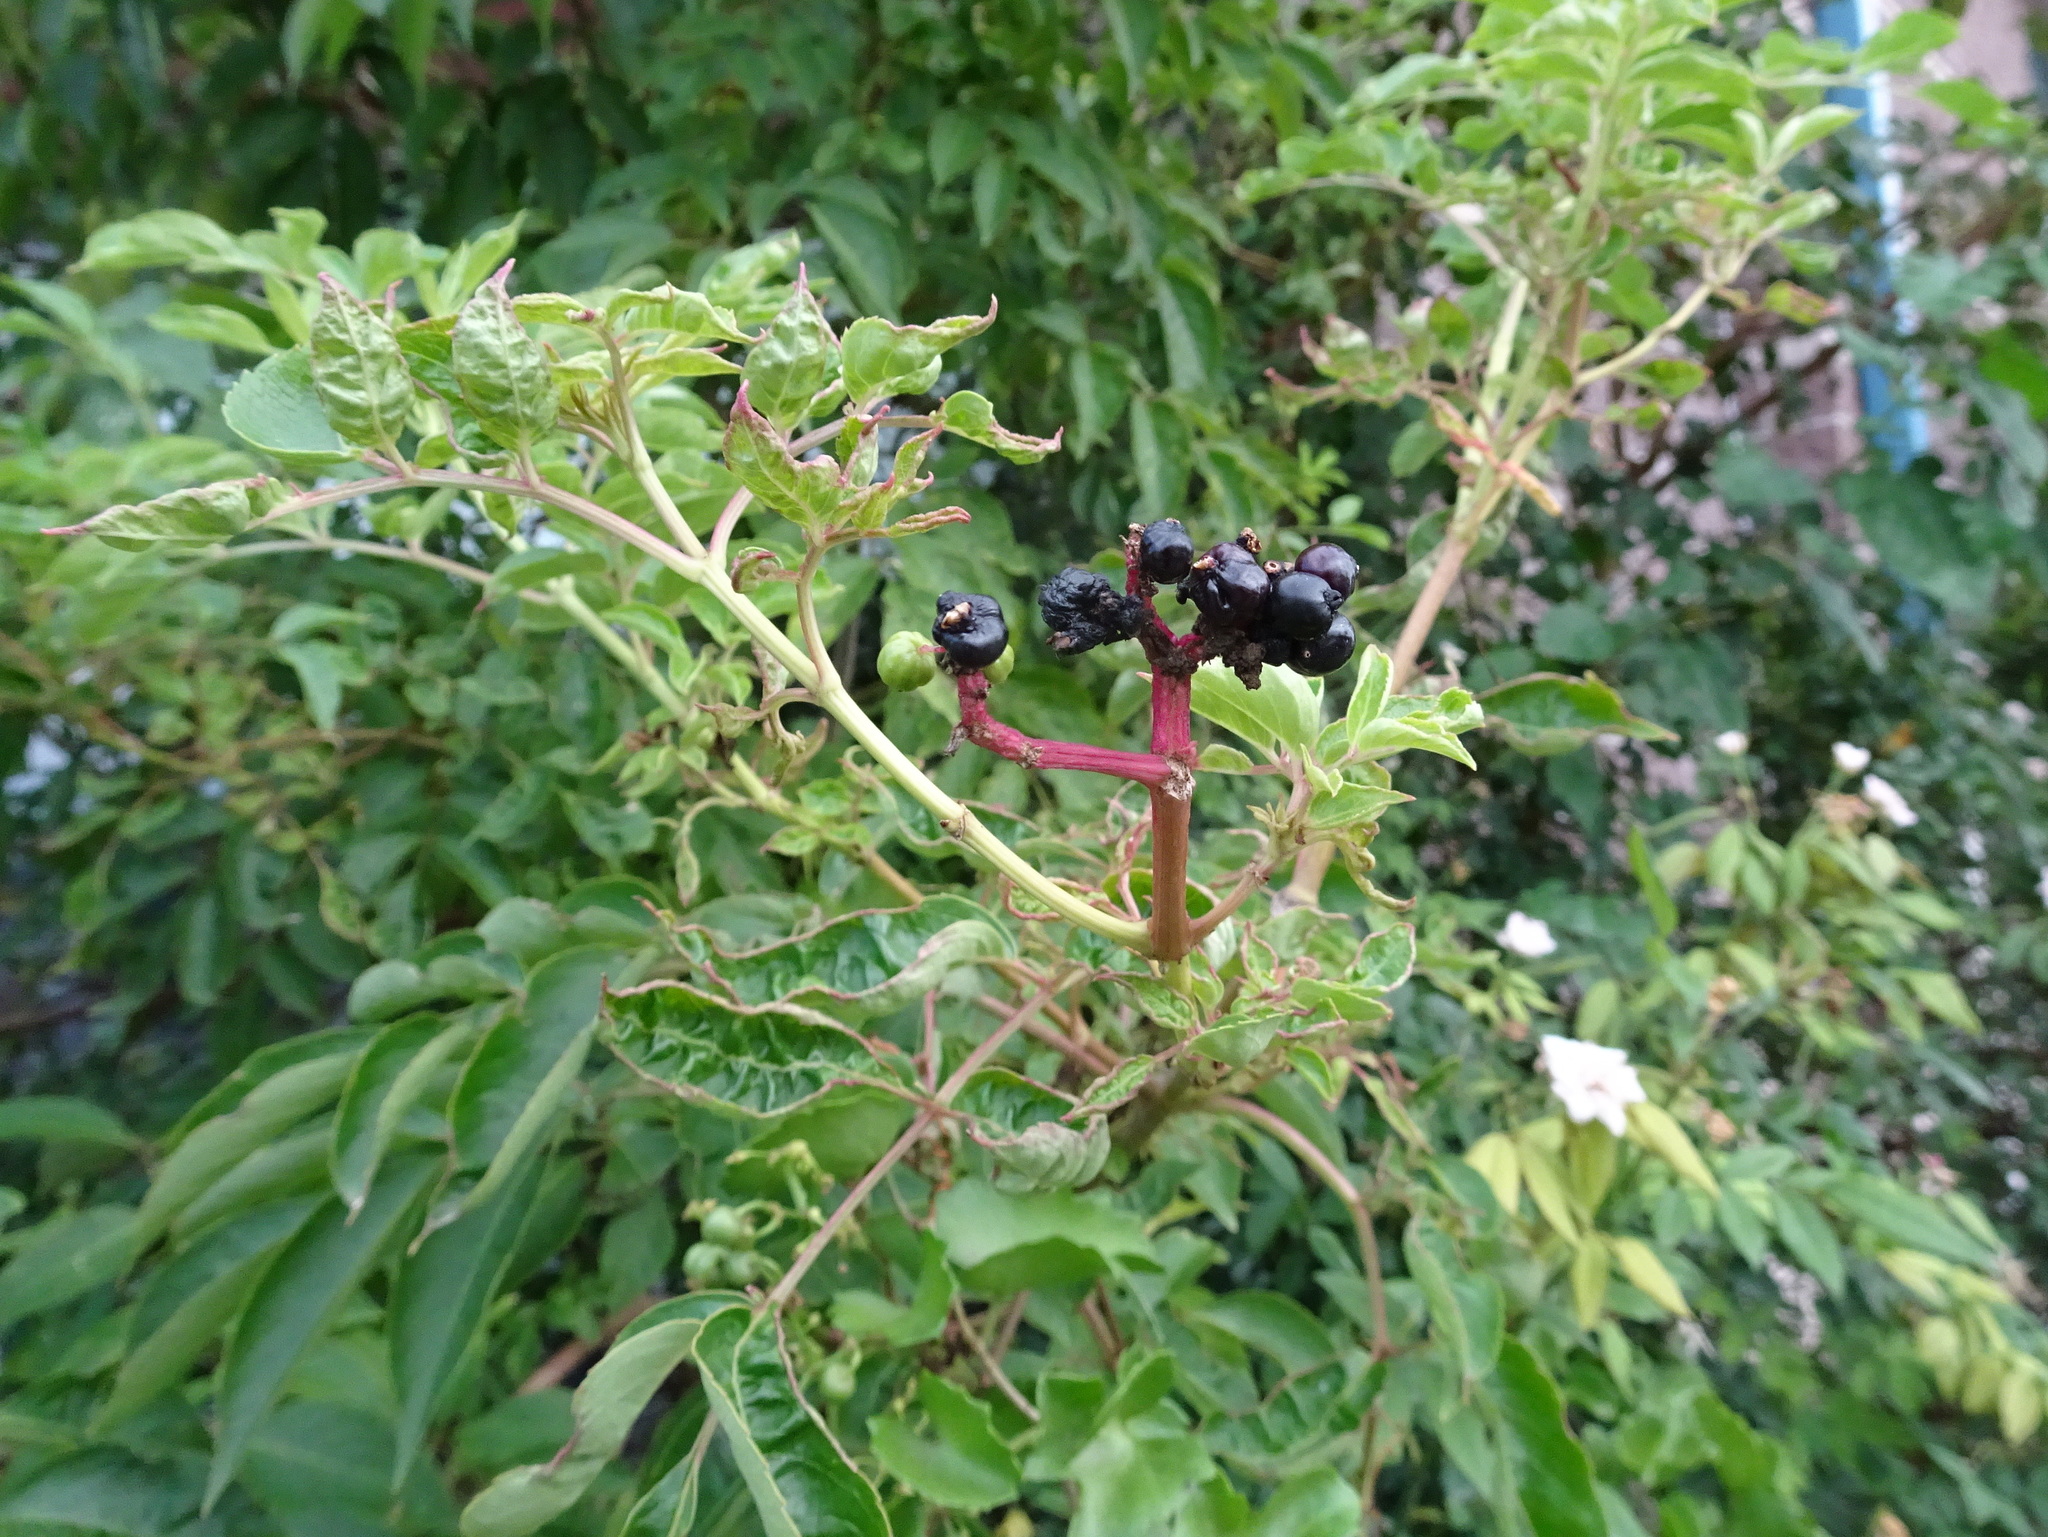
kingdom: Plantae
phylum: Tracheophyta
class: Magnoliopsida
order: Dipsacales
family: Viburnaceae
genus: Sambucus
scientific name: Sambucus canadensis
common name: American elder
